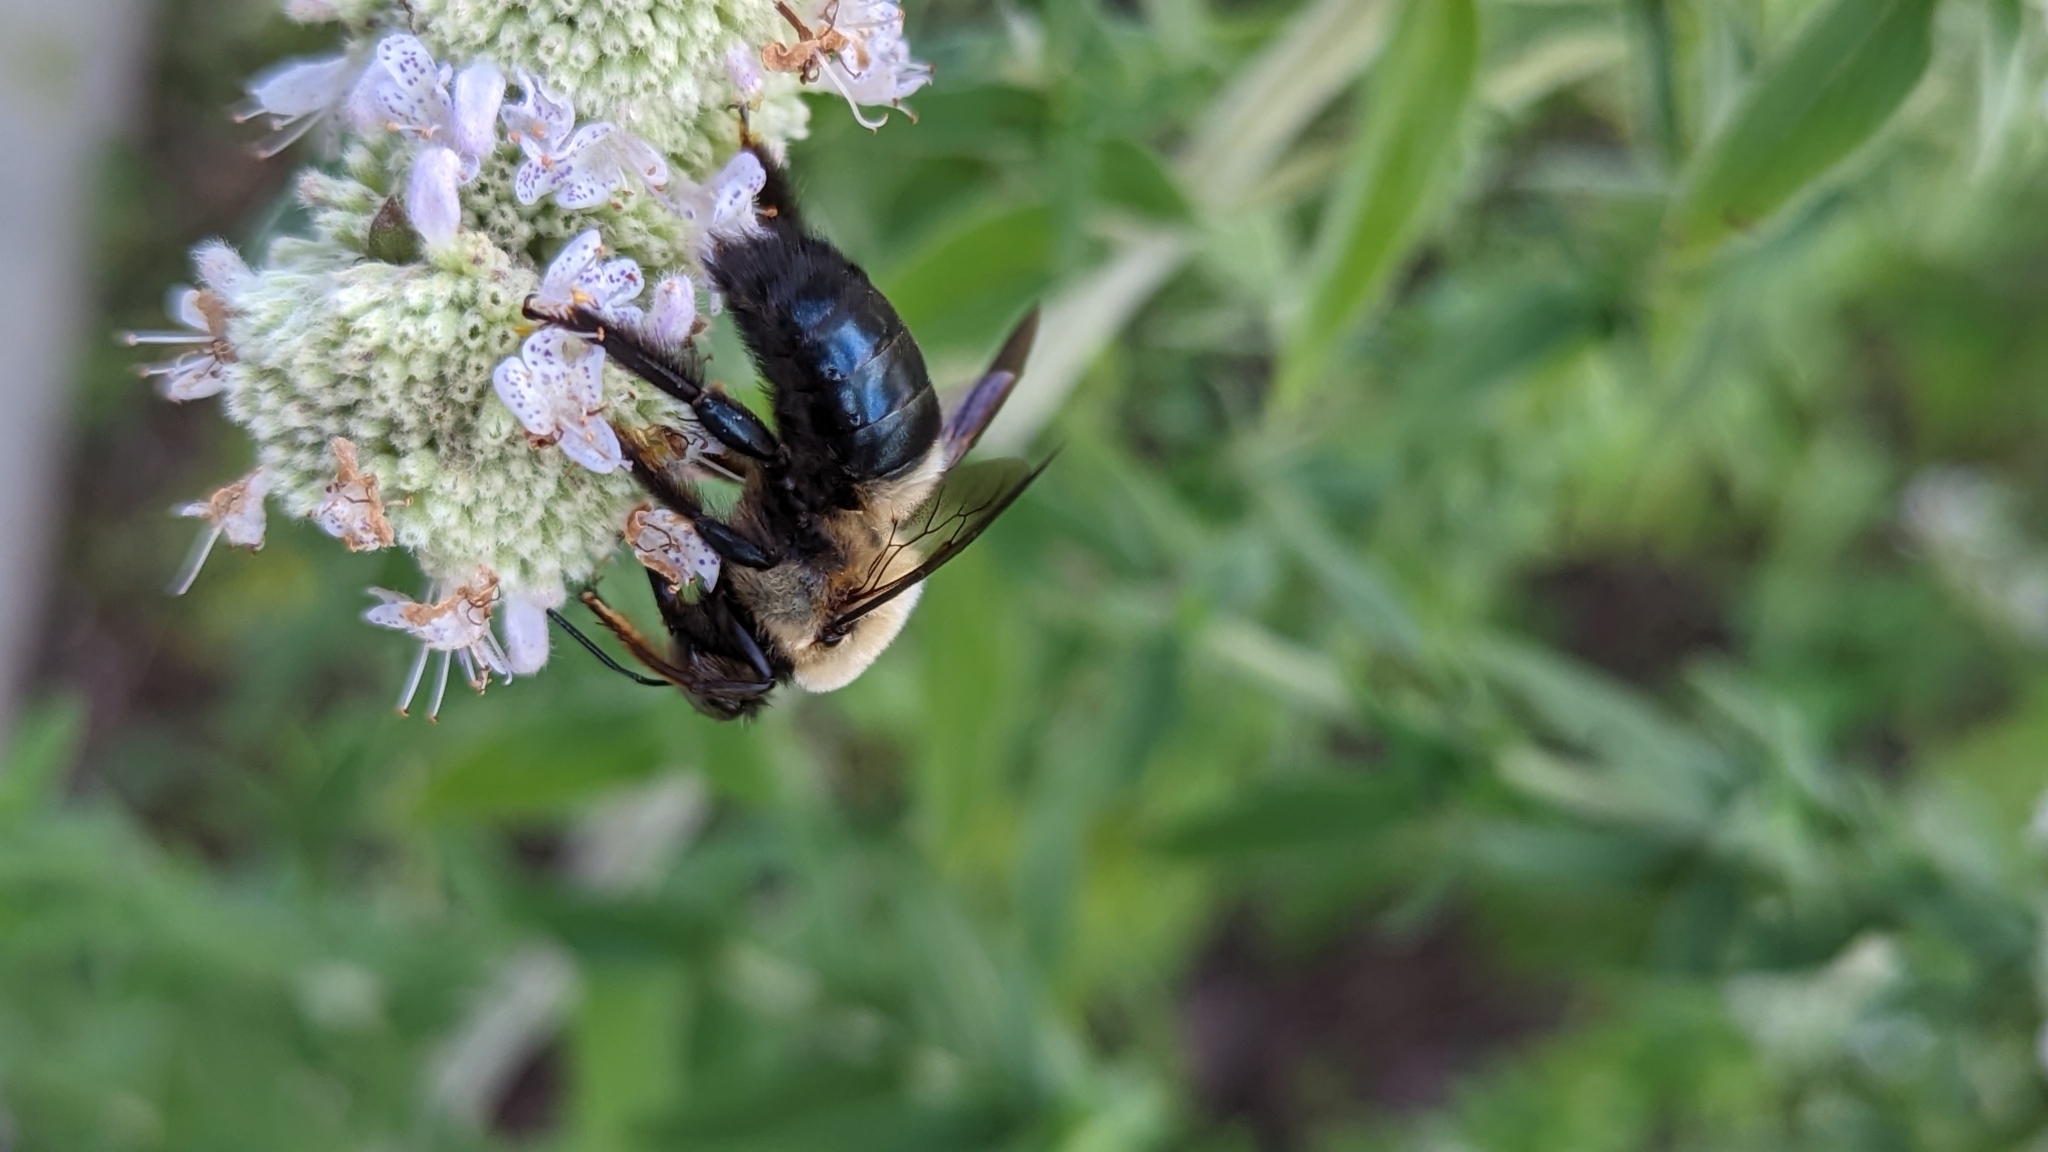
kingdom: Animalia
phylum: Arthropoda
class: Insecta
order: Hymenoptera
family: Apidae
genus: Xylocopa
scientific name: Xylocopa virginica
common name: Carpenter bee
